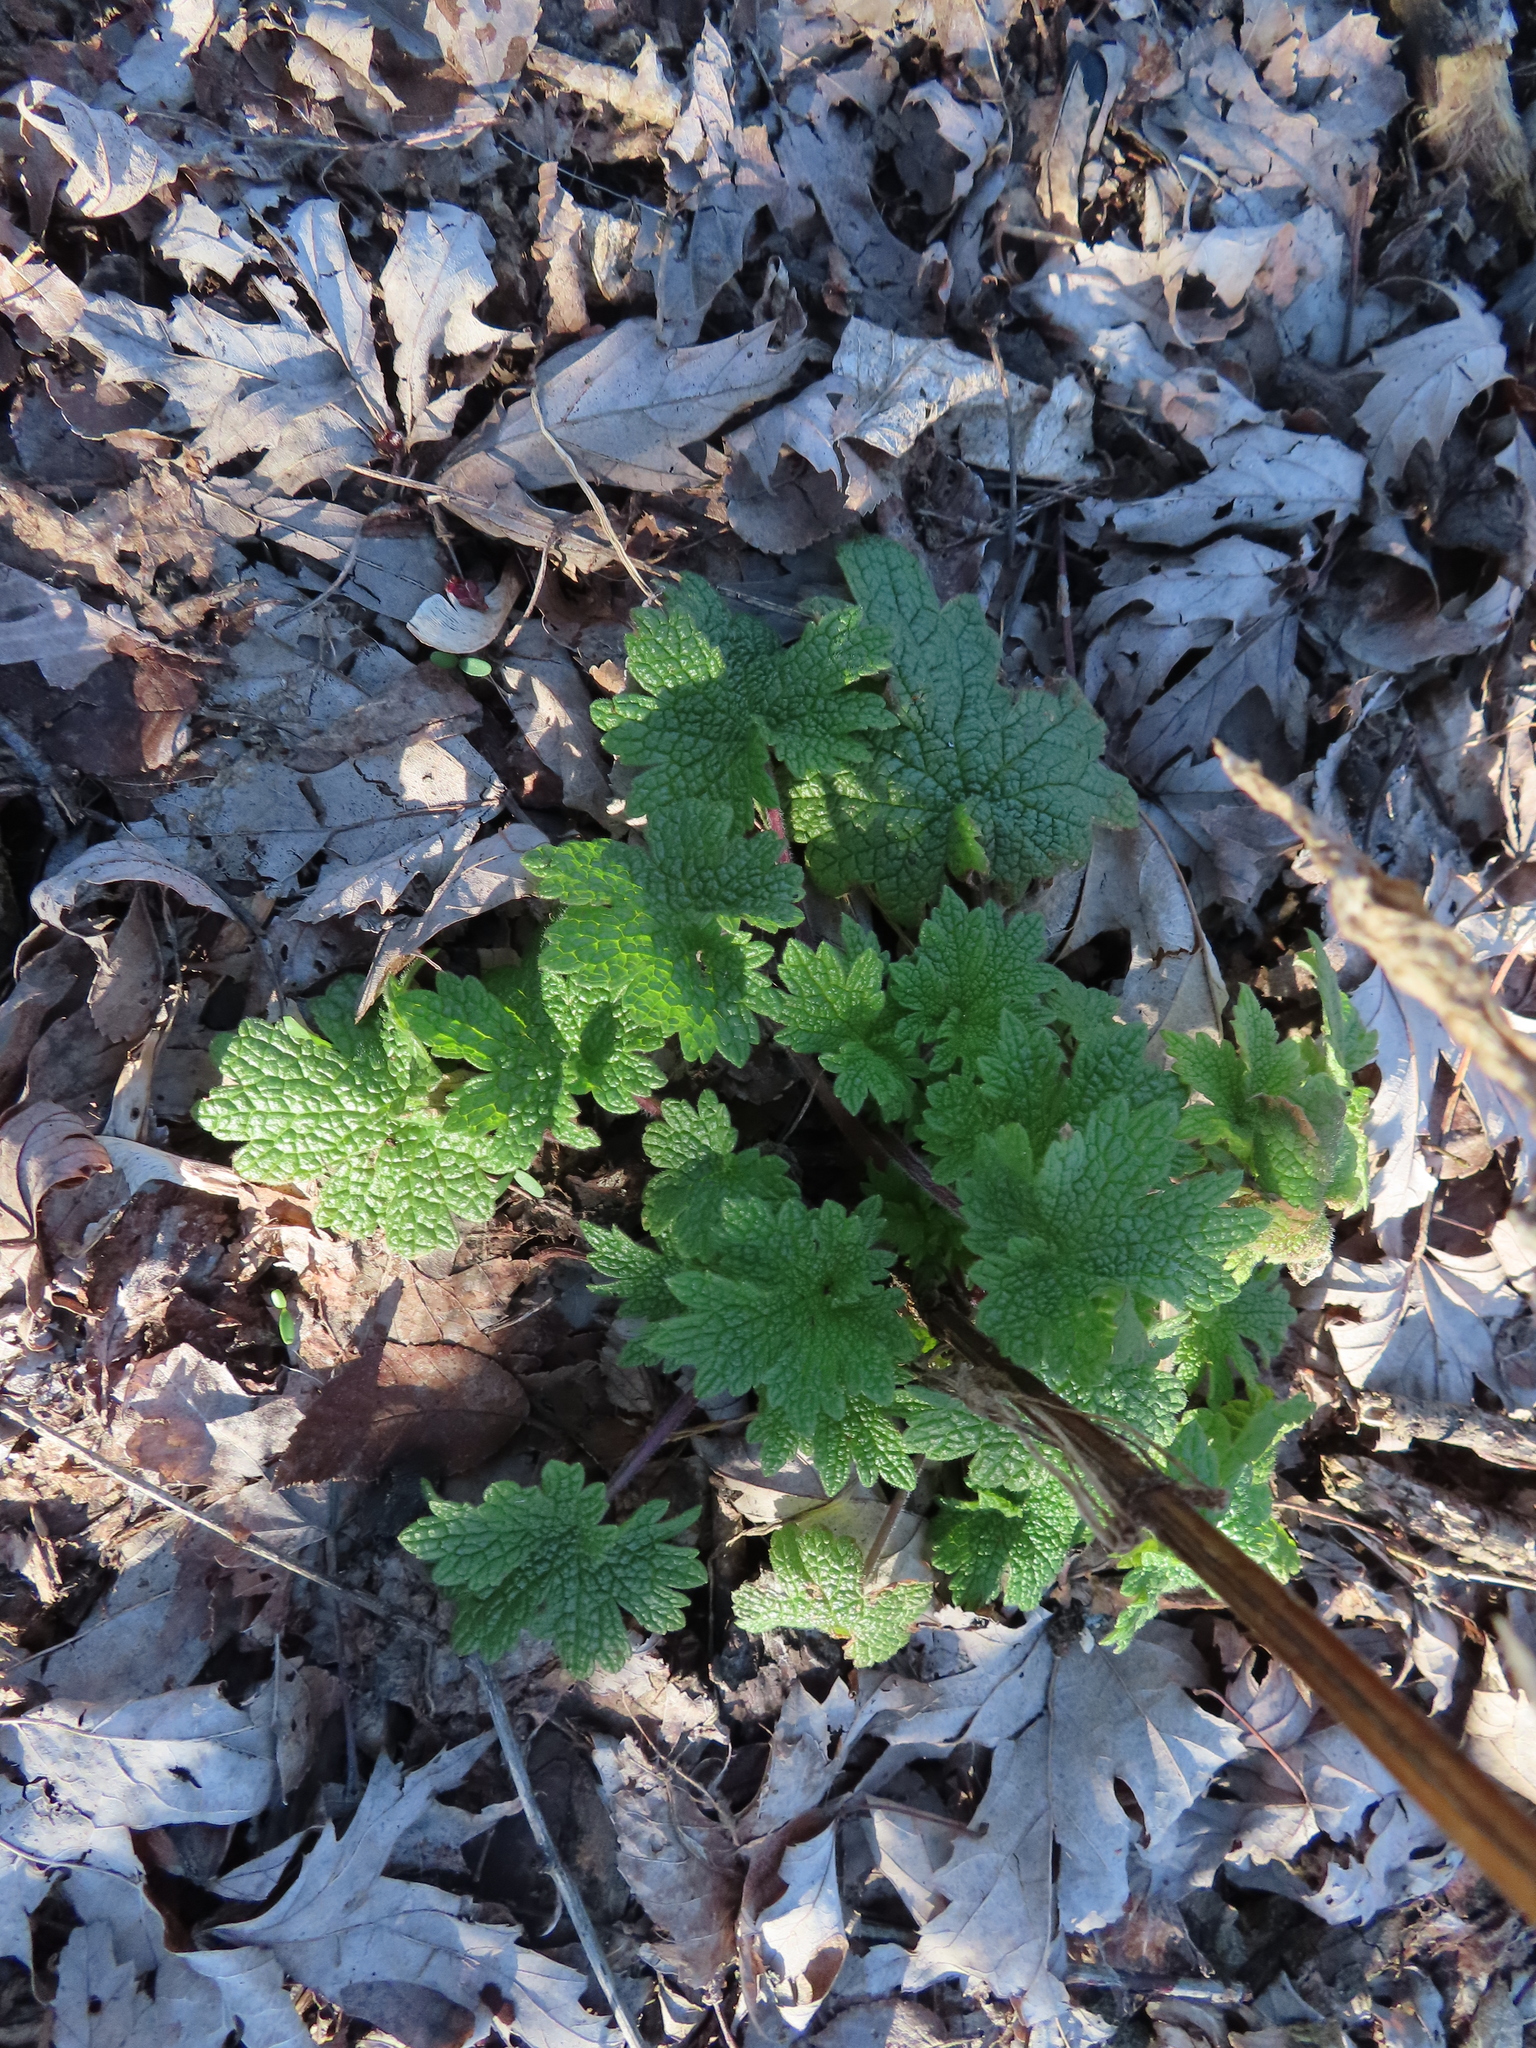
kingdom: Plantae
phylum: Tracheophyta
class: Magnoliopsida
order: Lamiales
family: Lamiaceae
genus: Leonurus
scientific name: Leonurus cardiaca
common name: Motherwort
